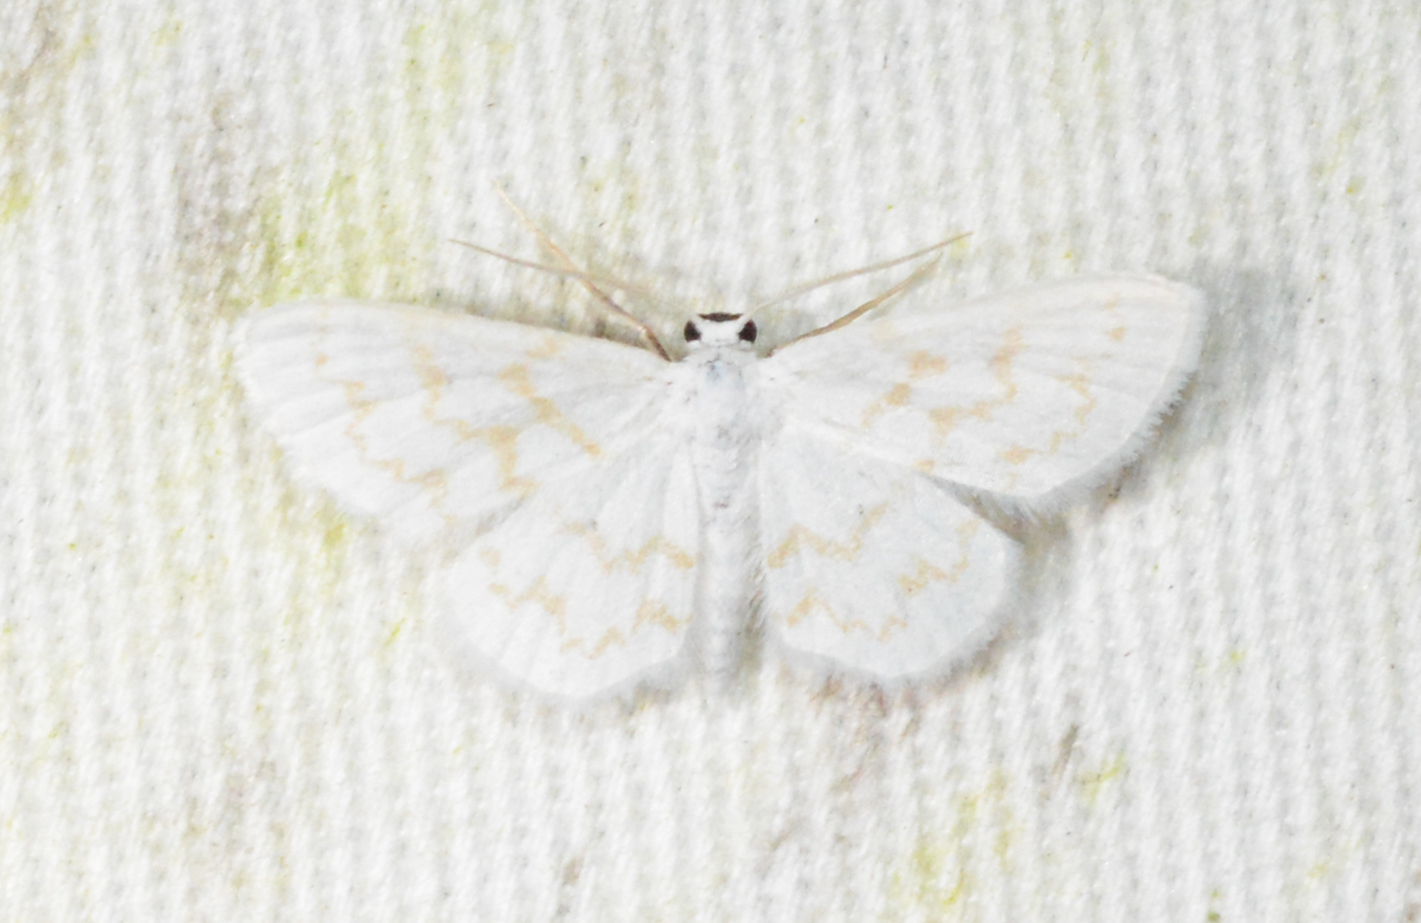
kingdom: Animalia
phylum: Arthropoda
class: Insecta
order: Lepidoptera
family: Geometridae
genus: Lobocleta
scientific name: Lobocleta peralbata
